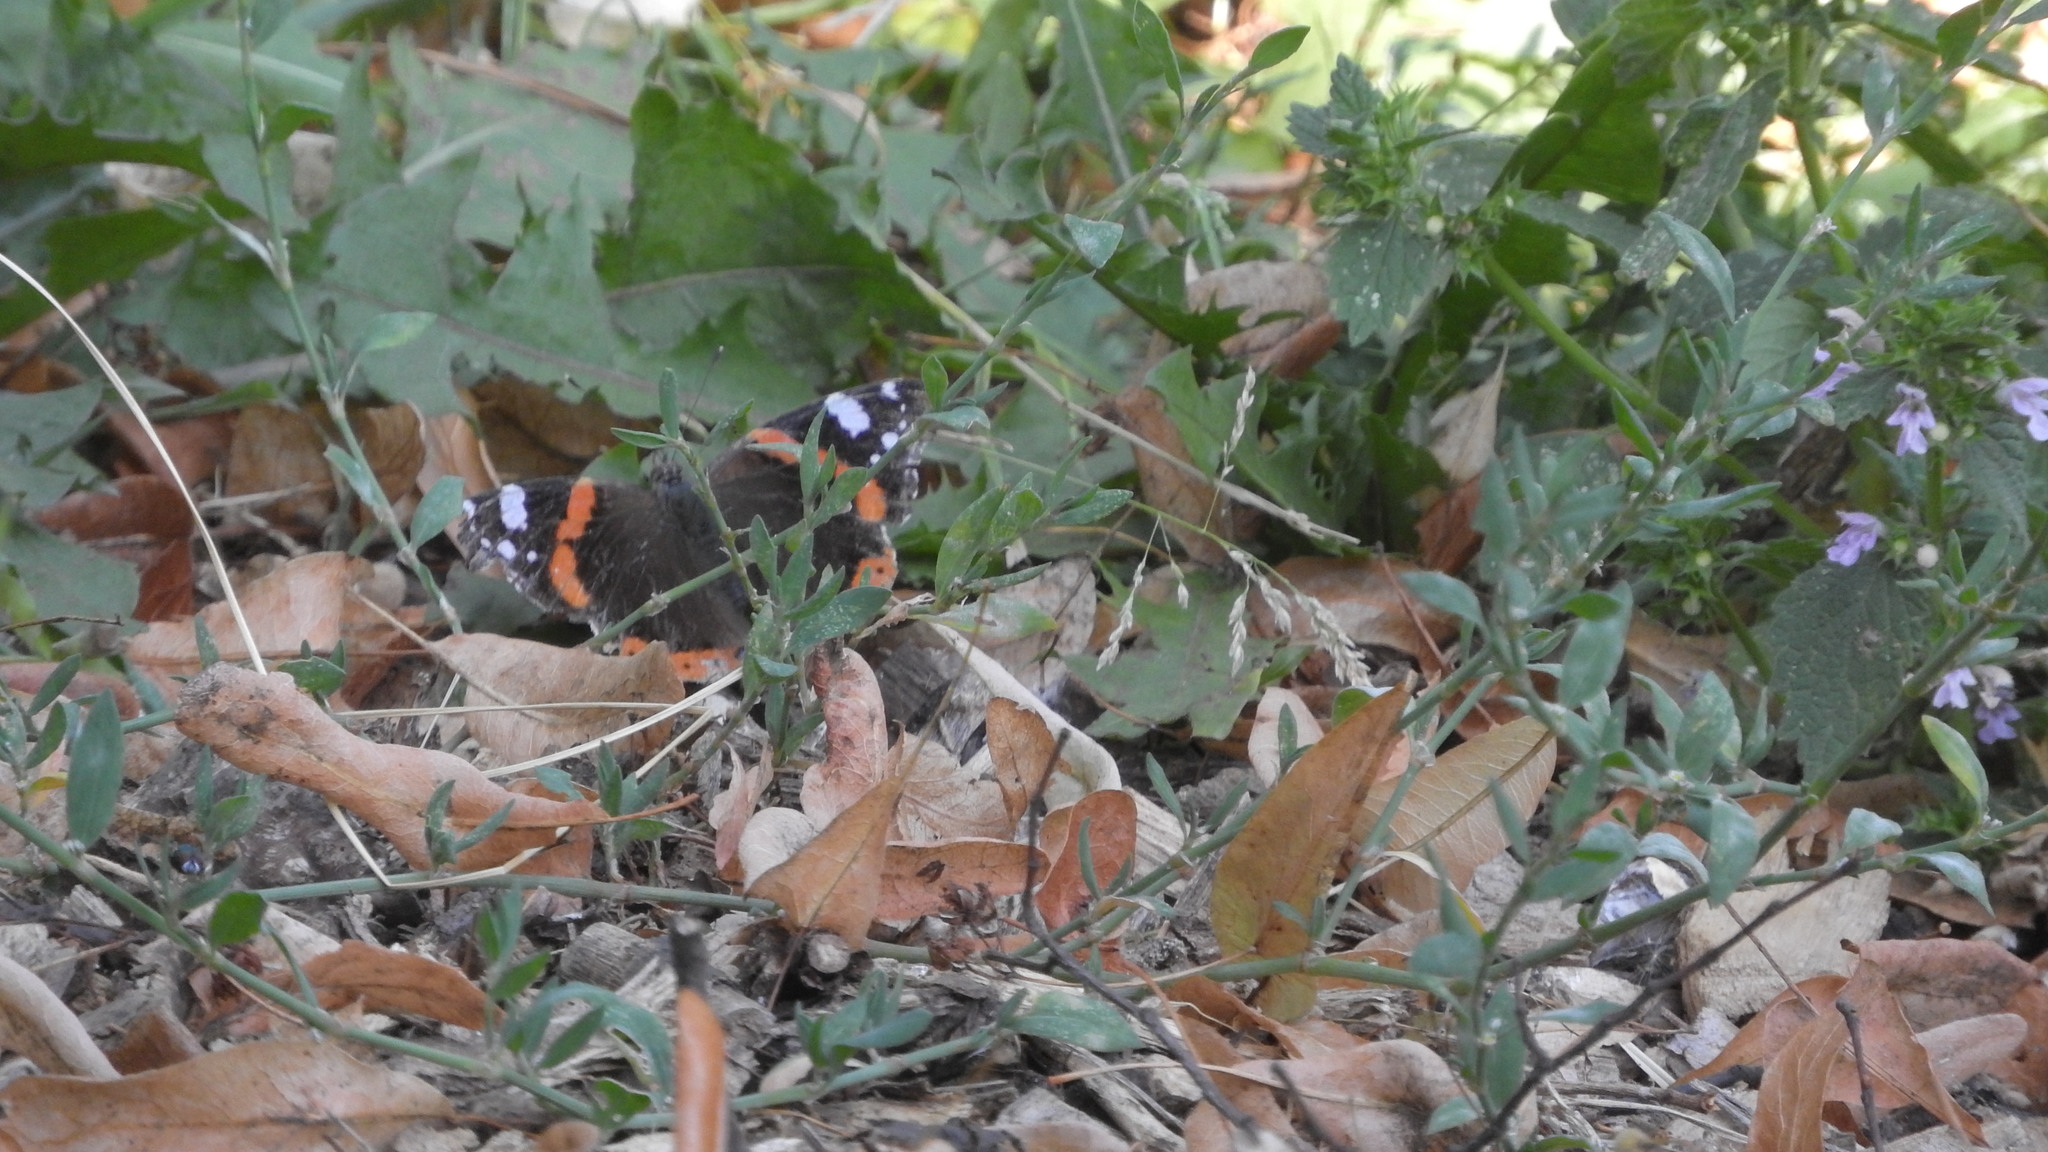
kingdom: Animalia
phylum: Arthropoda
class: Insecta
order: Lepidoptera
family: Nymphalidae
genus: Vanessa
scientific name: Vanessa atalanta
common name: Red admiral
